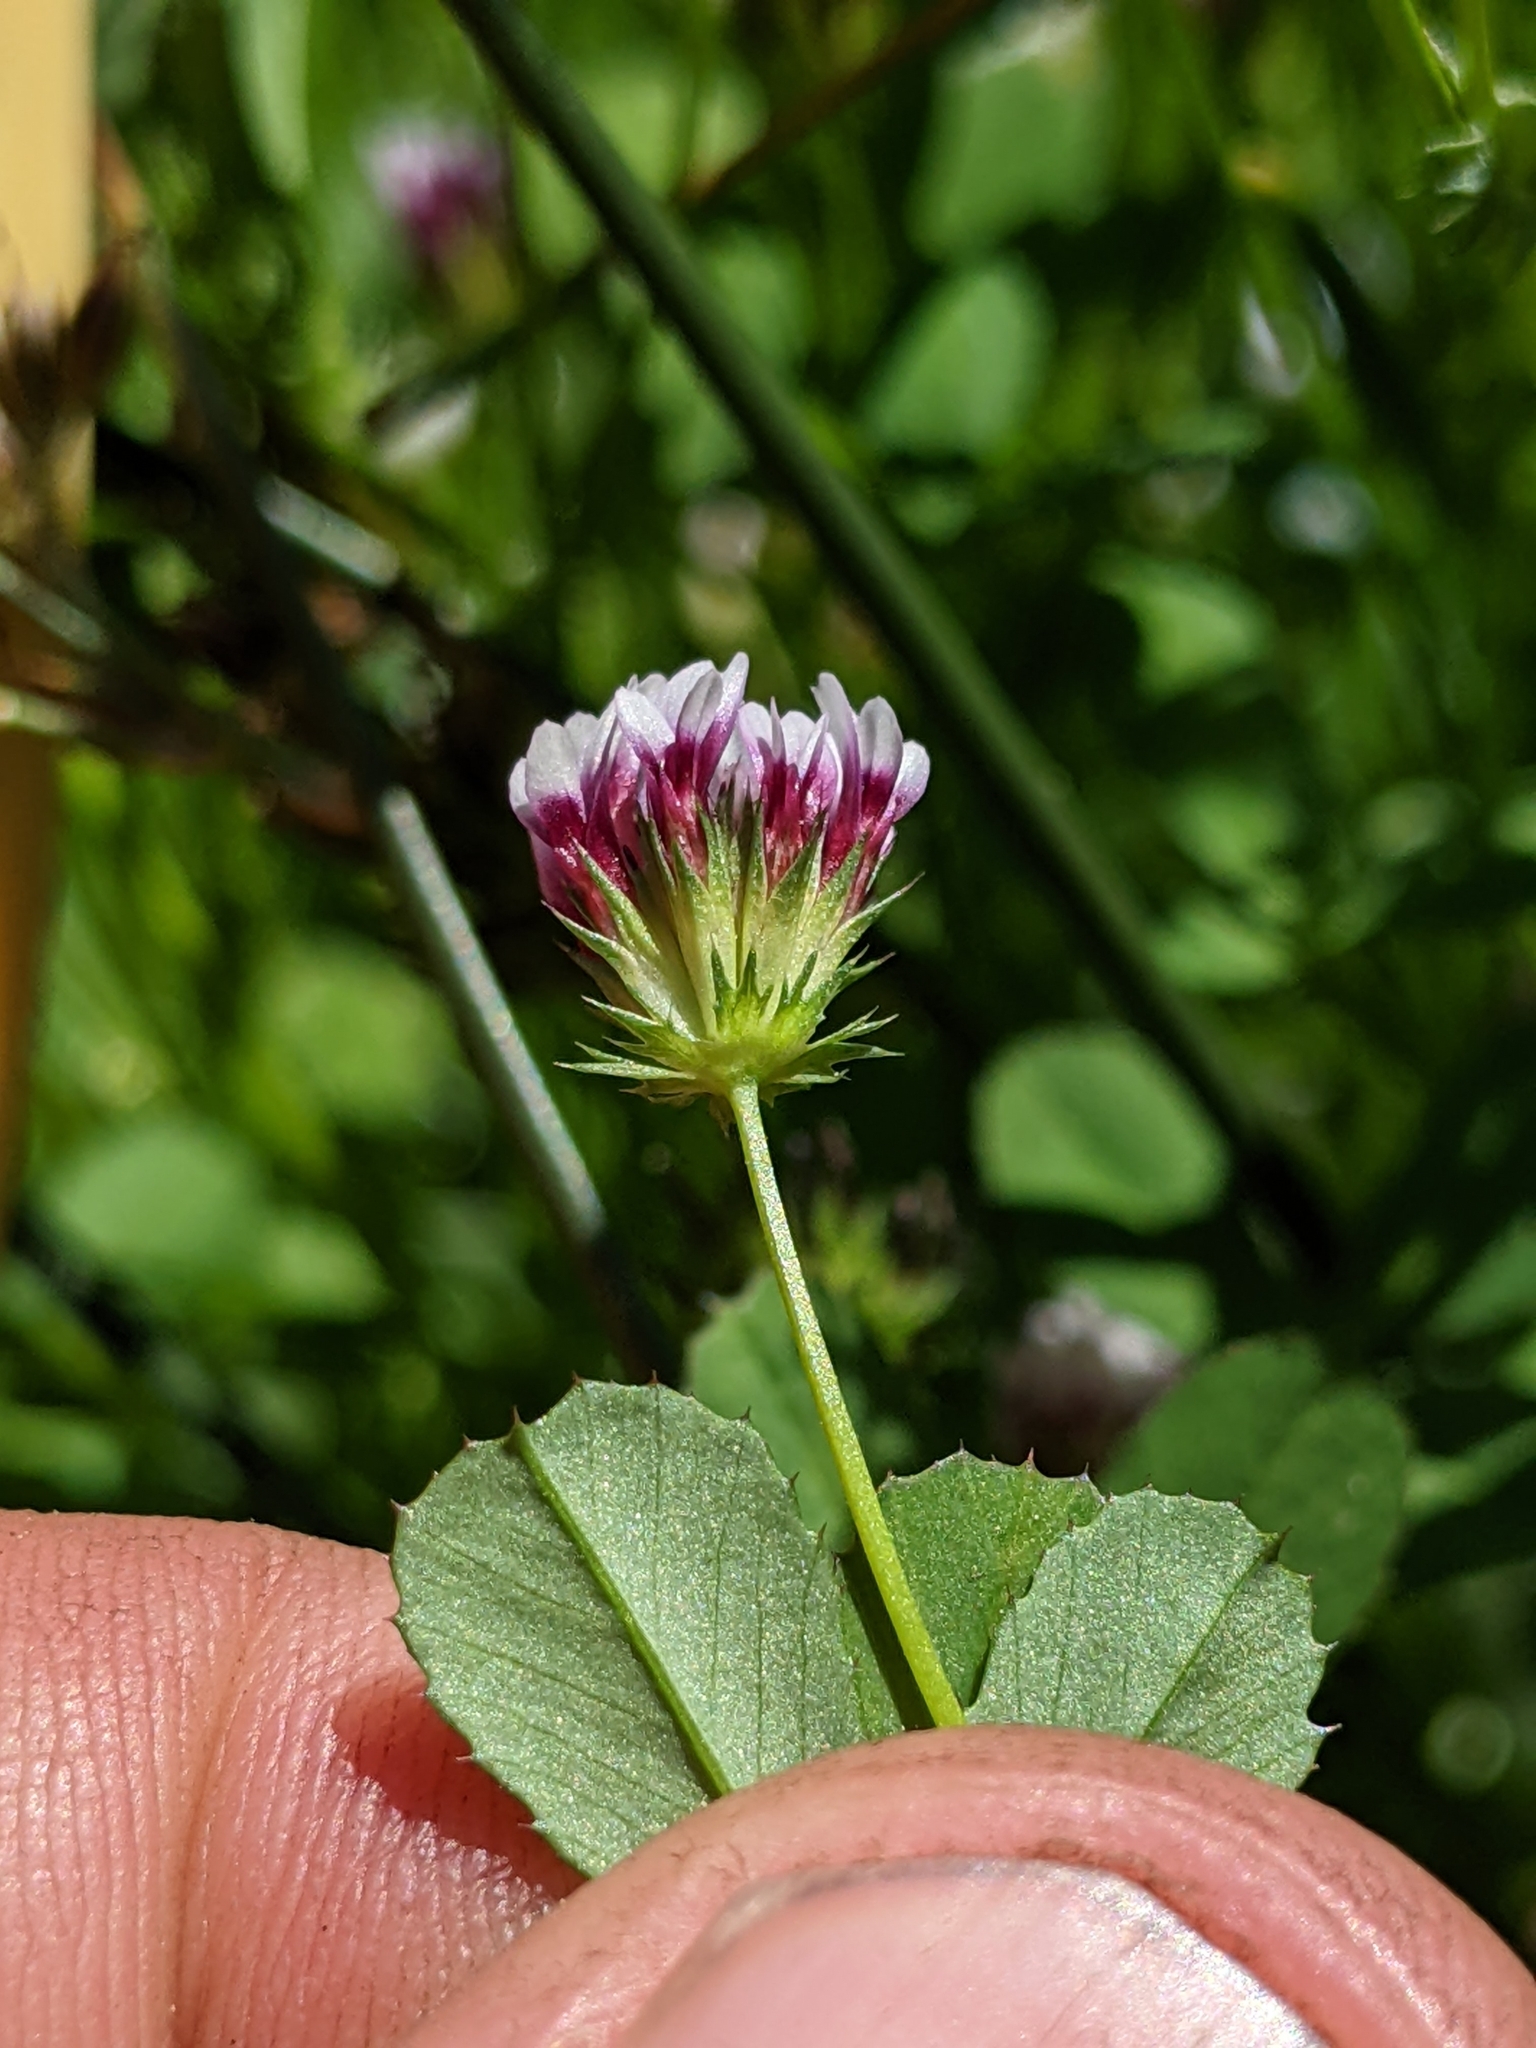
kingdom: Plantae
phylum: Tracheophyta
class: Magnoliopsida
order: Fabales
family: Fabaceae
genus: Trifolium
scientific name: Trifolium variegatum
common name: Whitetip clover
